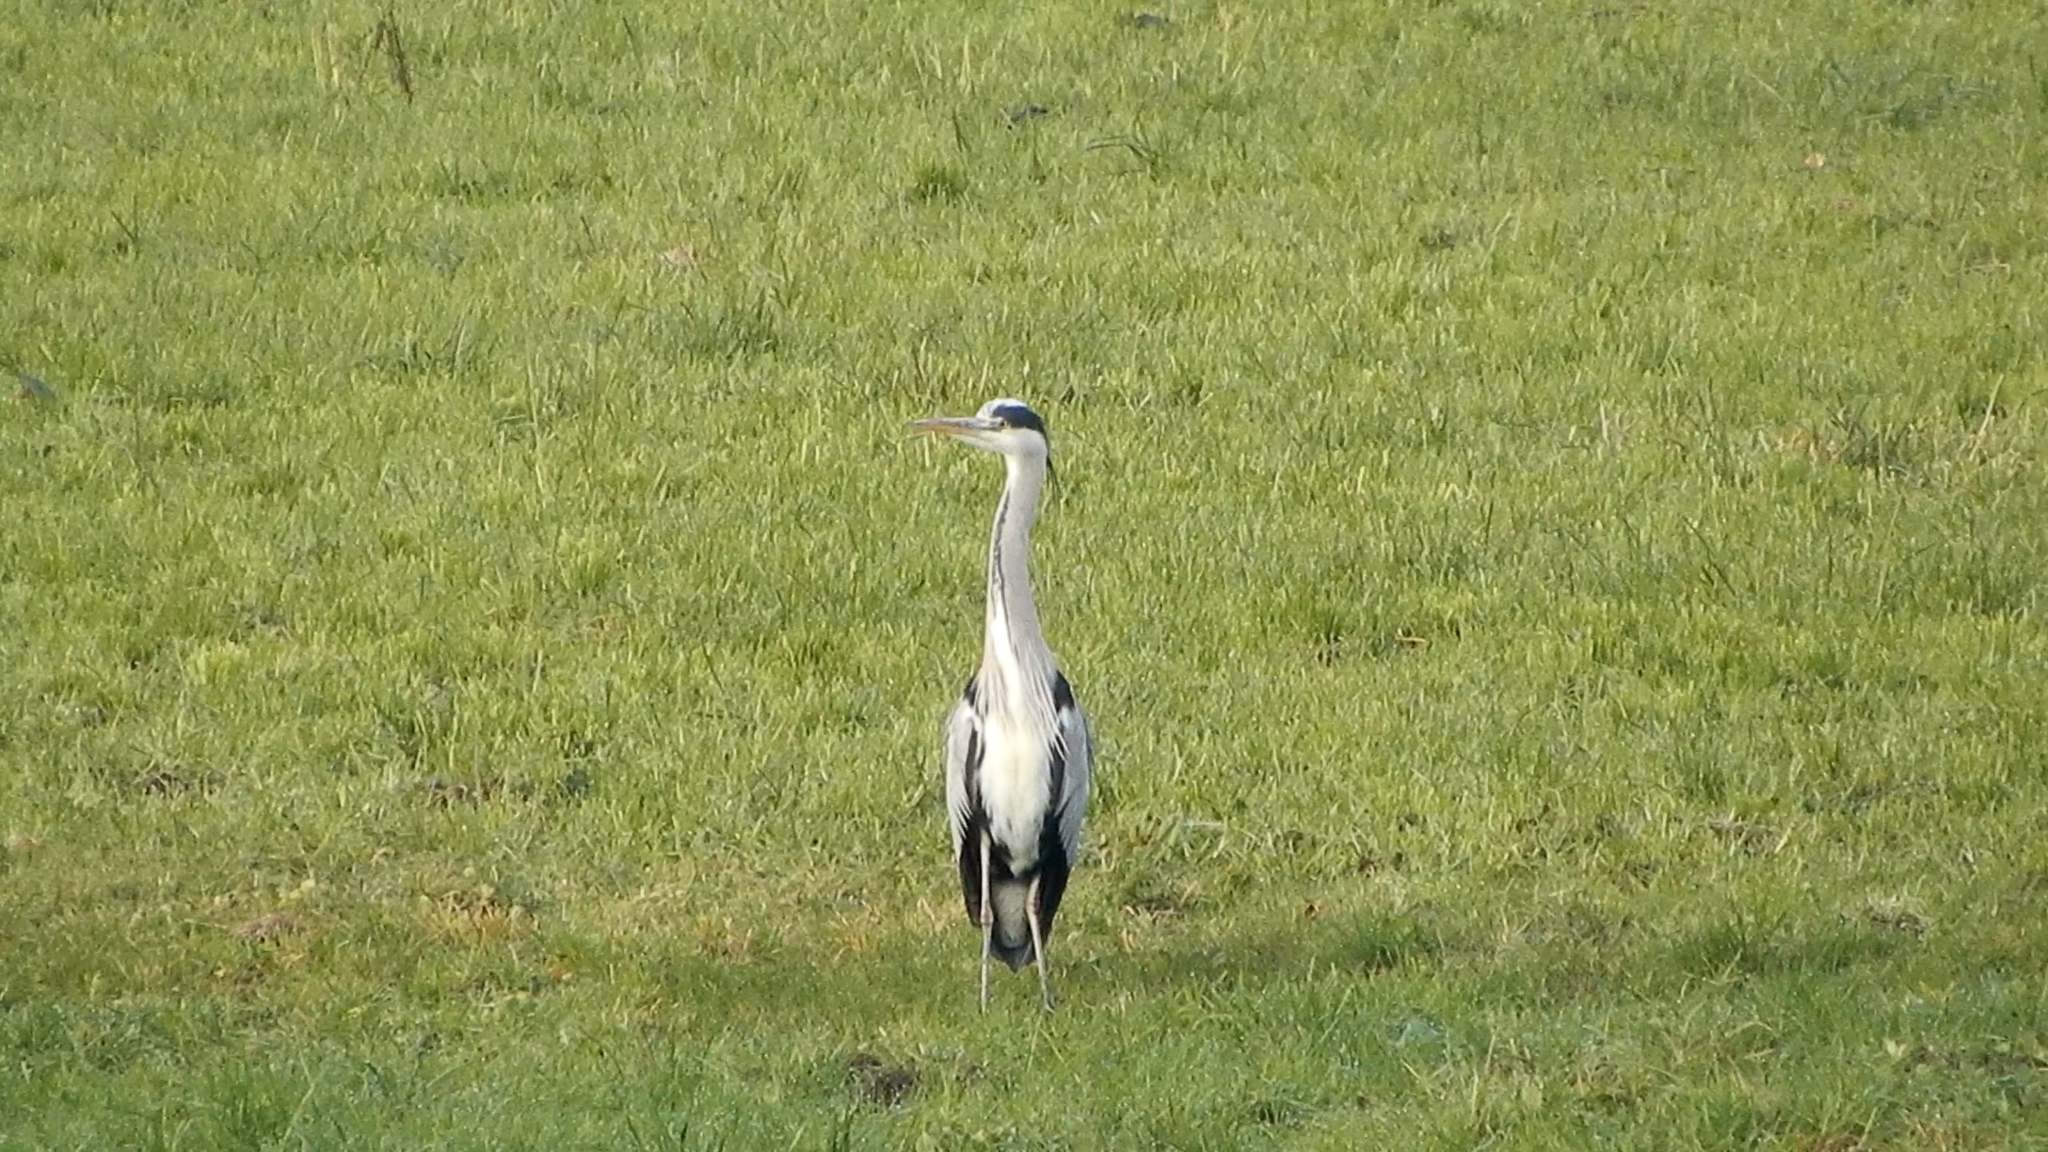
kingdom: Animalia
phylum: Chordata
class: Aves
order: Pelecaniformes
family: Ardeidae
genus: Ardea
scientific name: Ardea cinerea
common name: Grey heron
